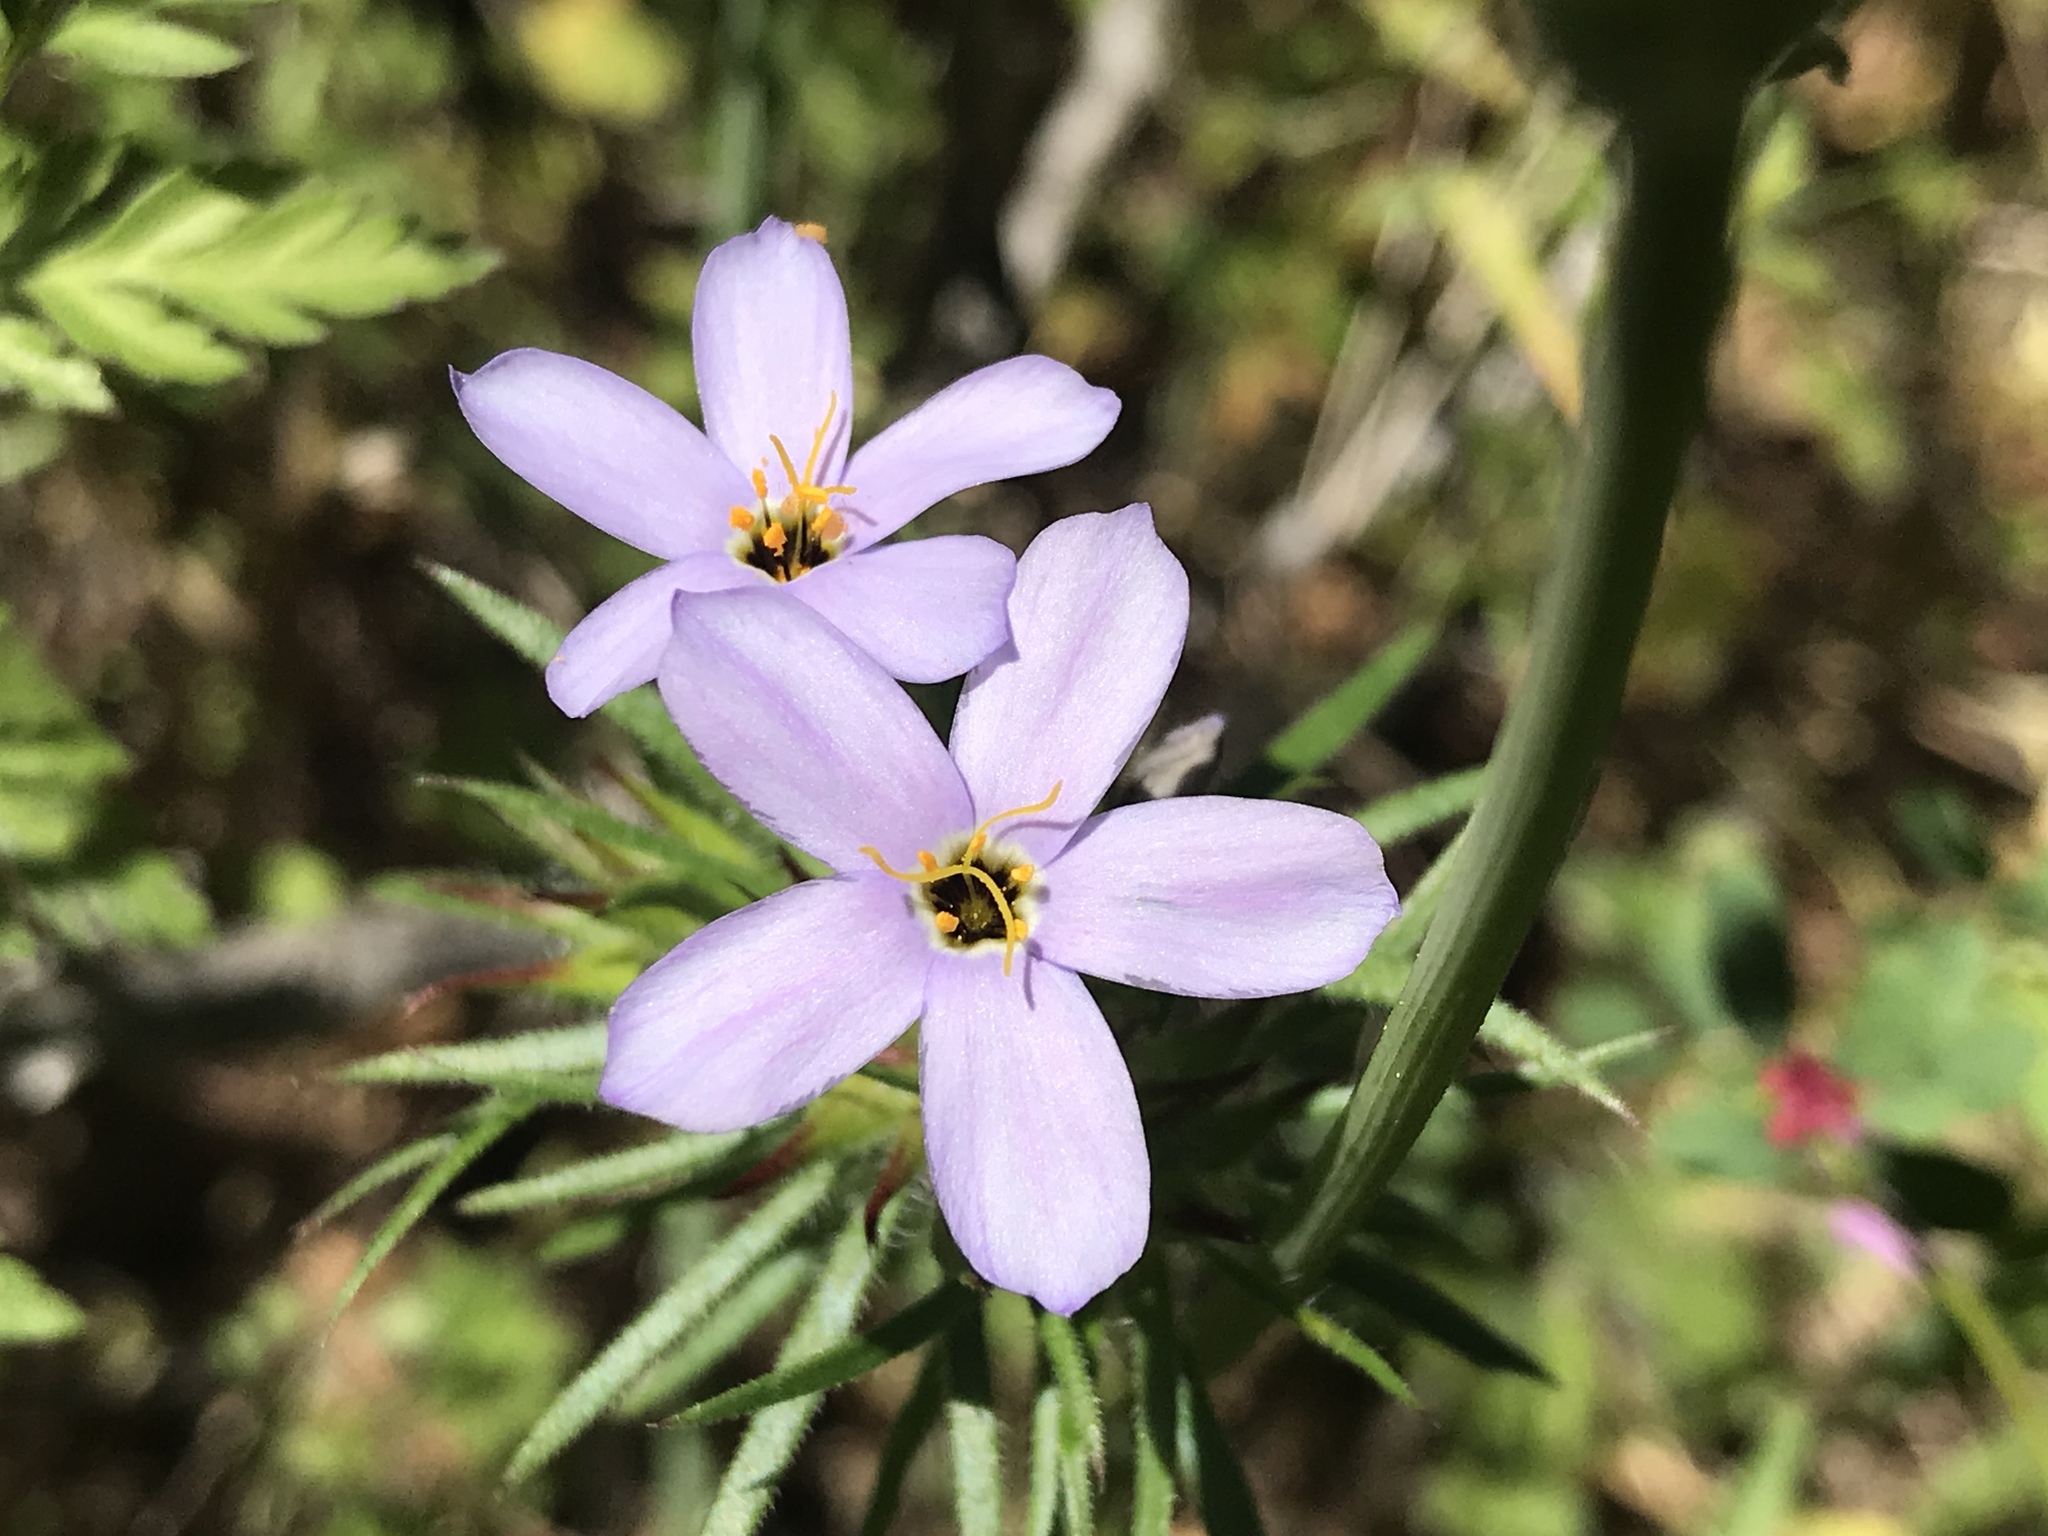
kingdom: Plantae
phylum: Tracheophyta
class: Magnoliopsida
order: Ericales
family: Polemoniaceae
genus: Leptosiphon
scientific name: Leptosiphon androsaceus
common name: False babystars
